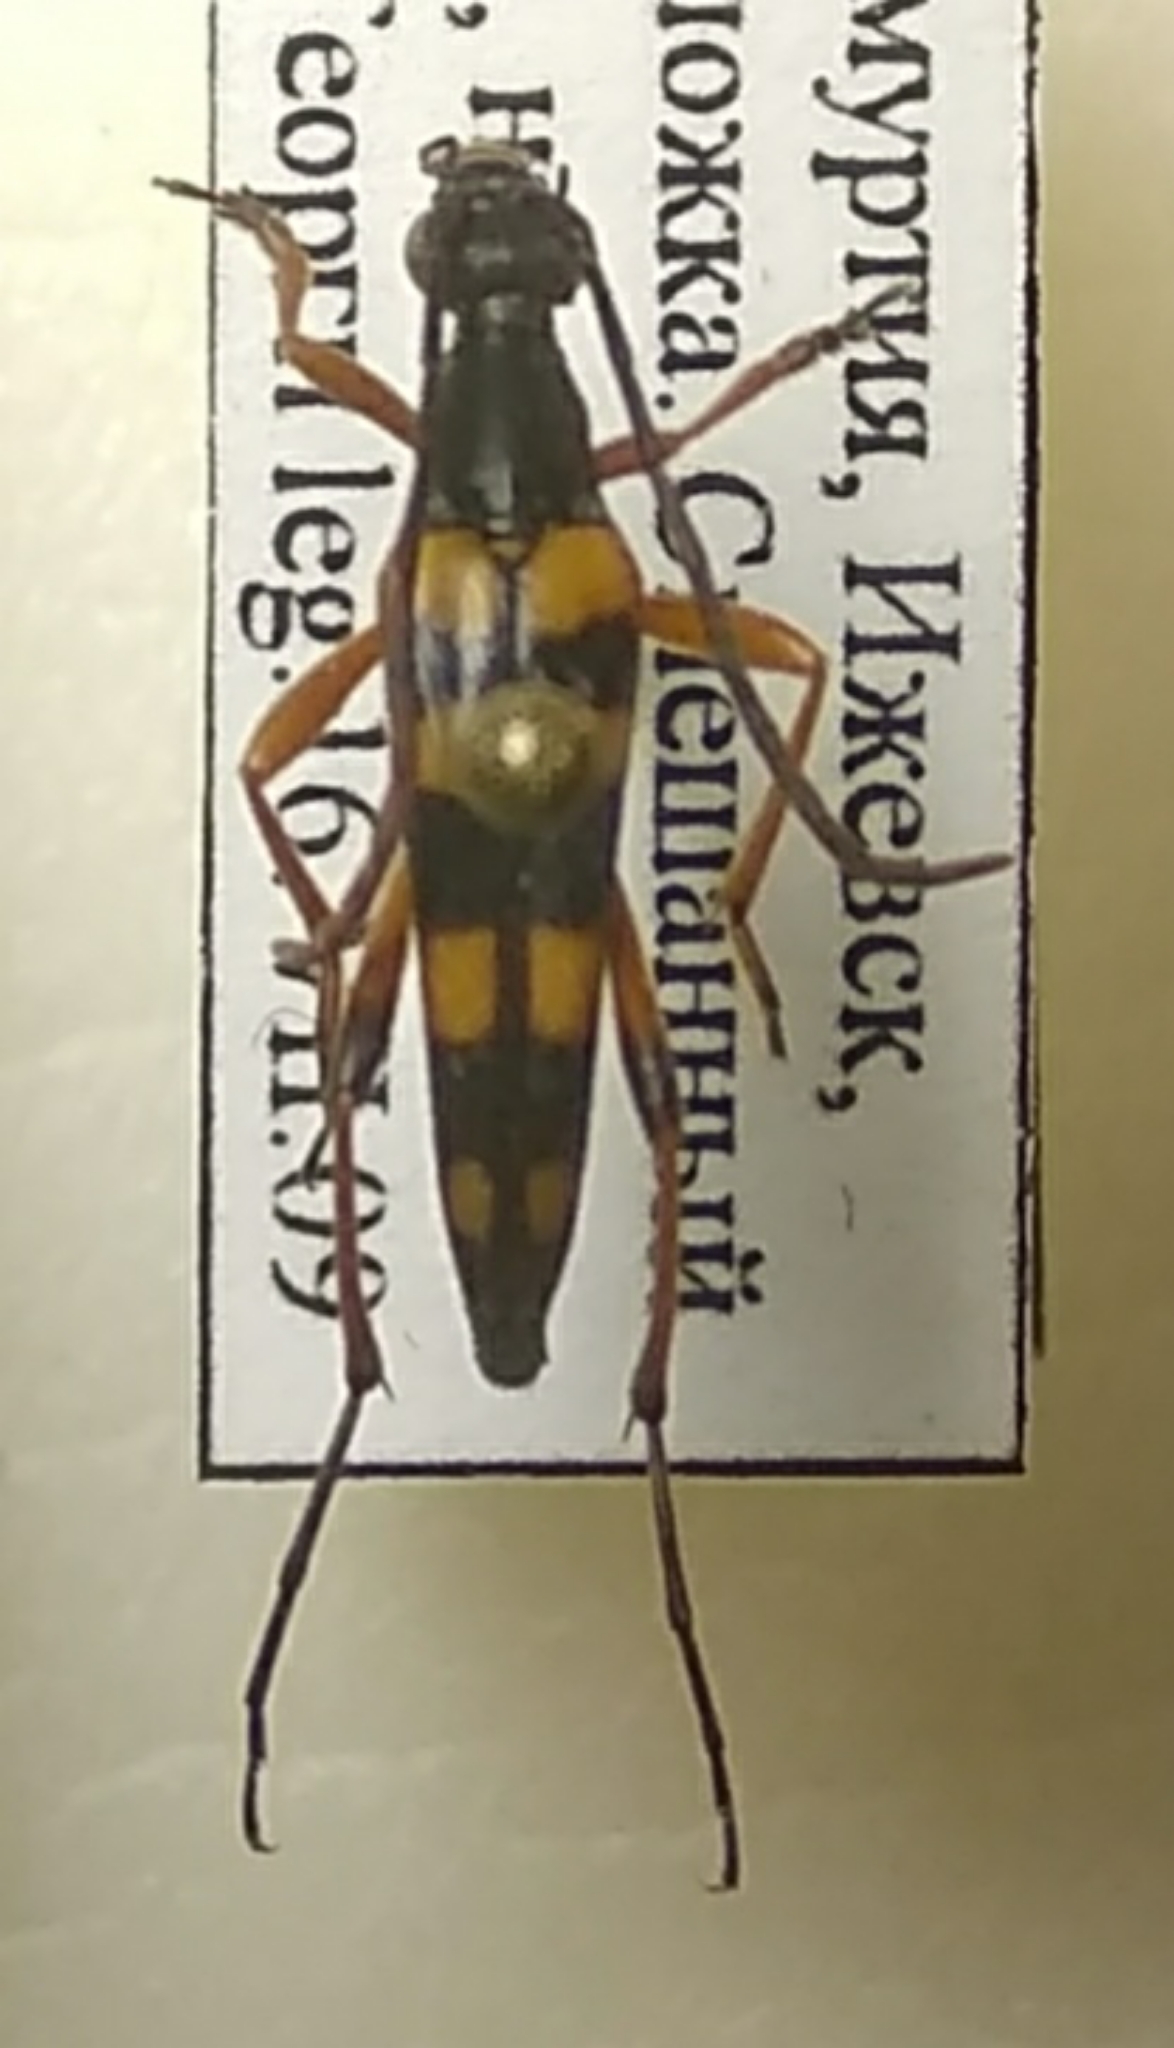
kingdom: Animalia
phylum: Arthropoda
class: Insecta
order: Coleoptera
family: Cerambycidae
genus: Strangalia
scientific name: Strangalia attenuata
